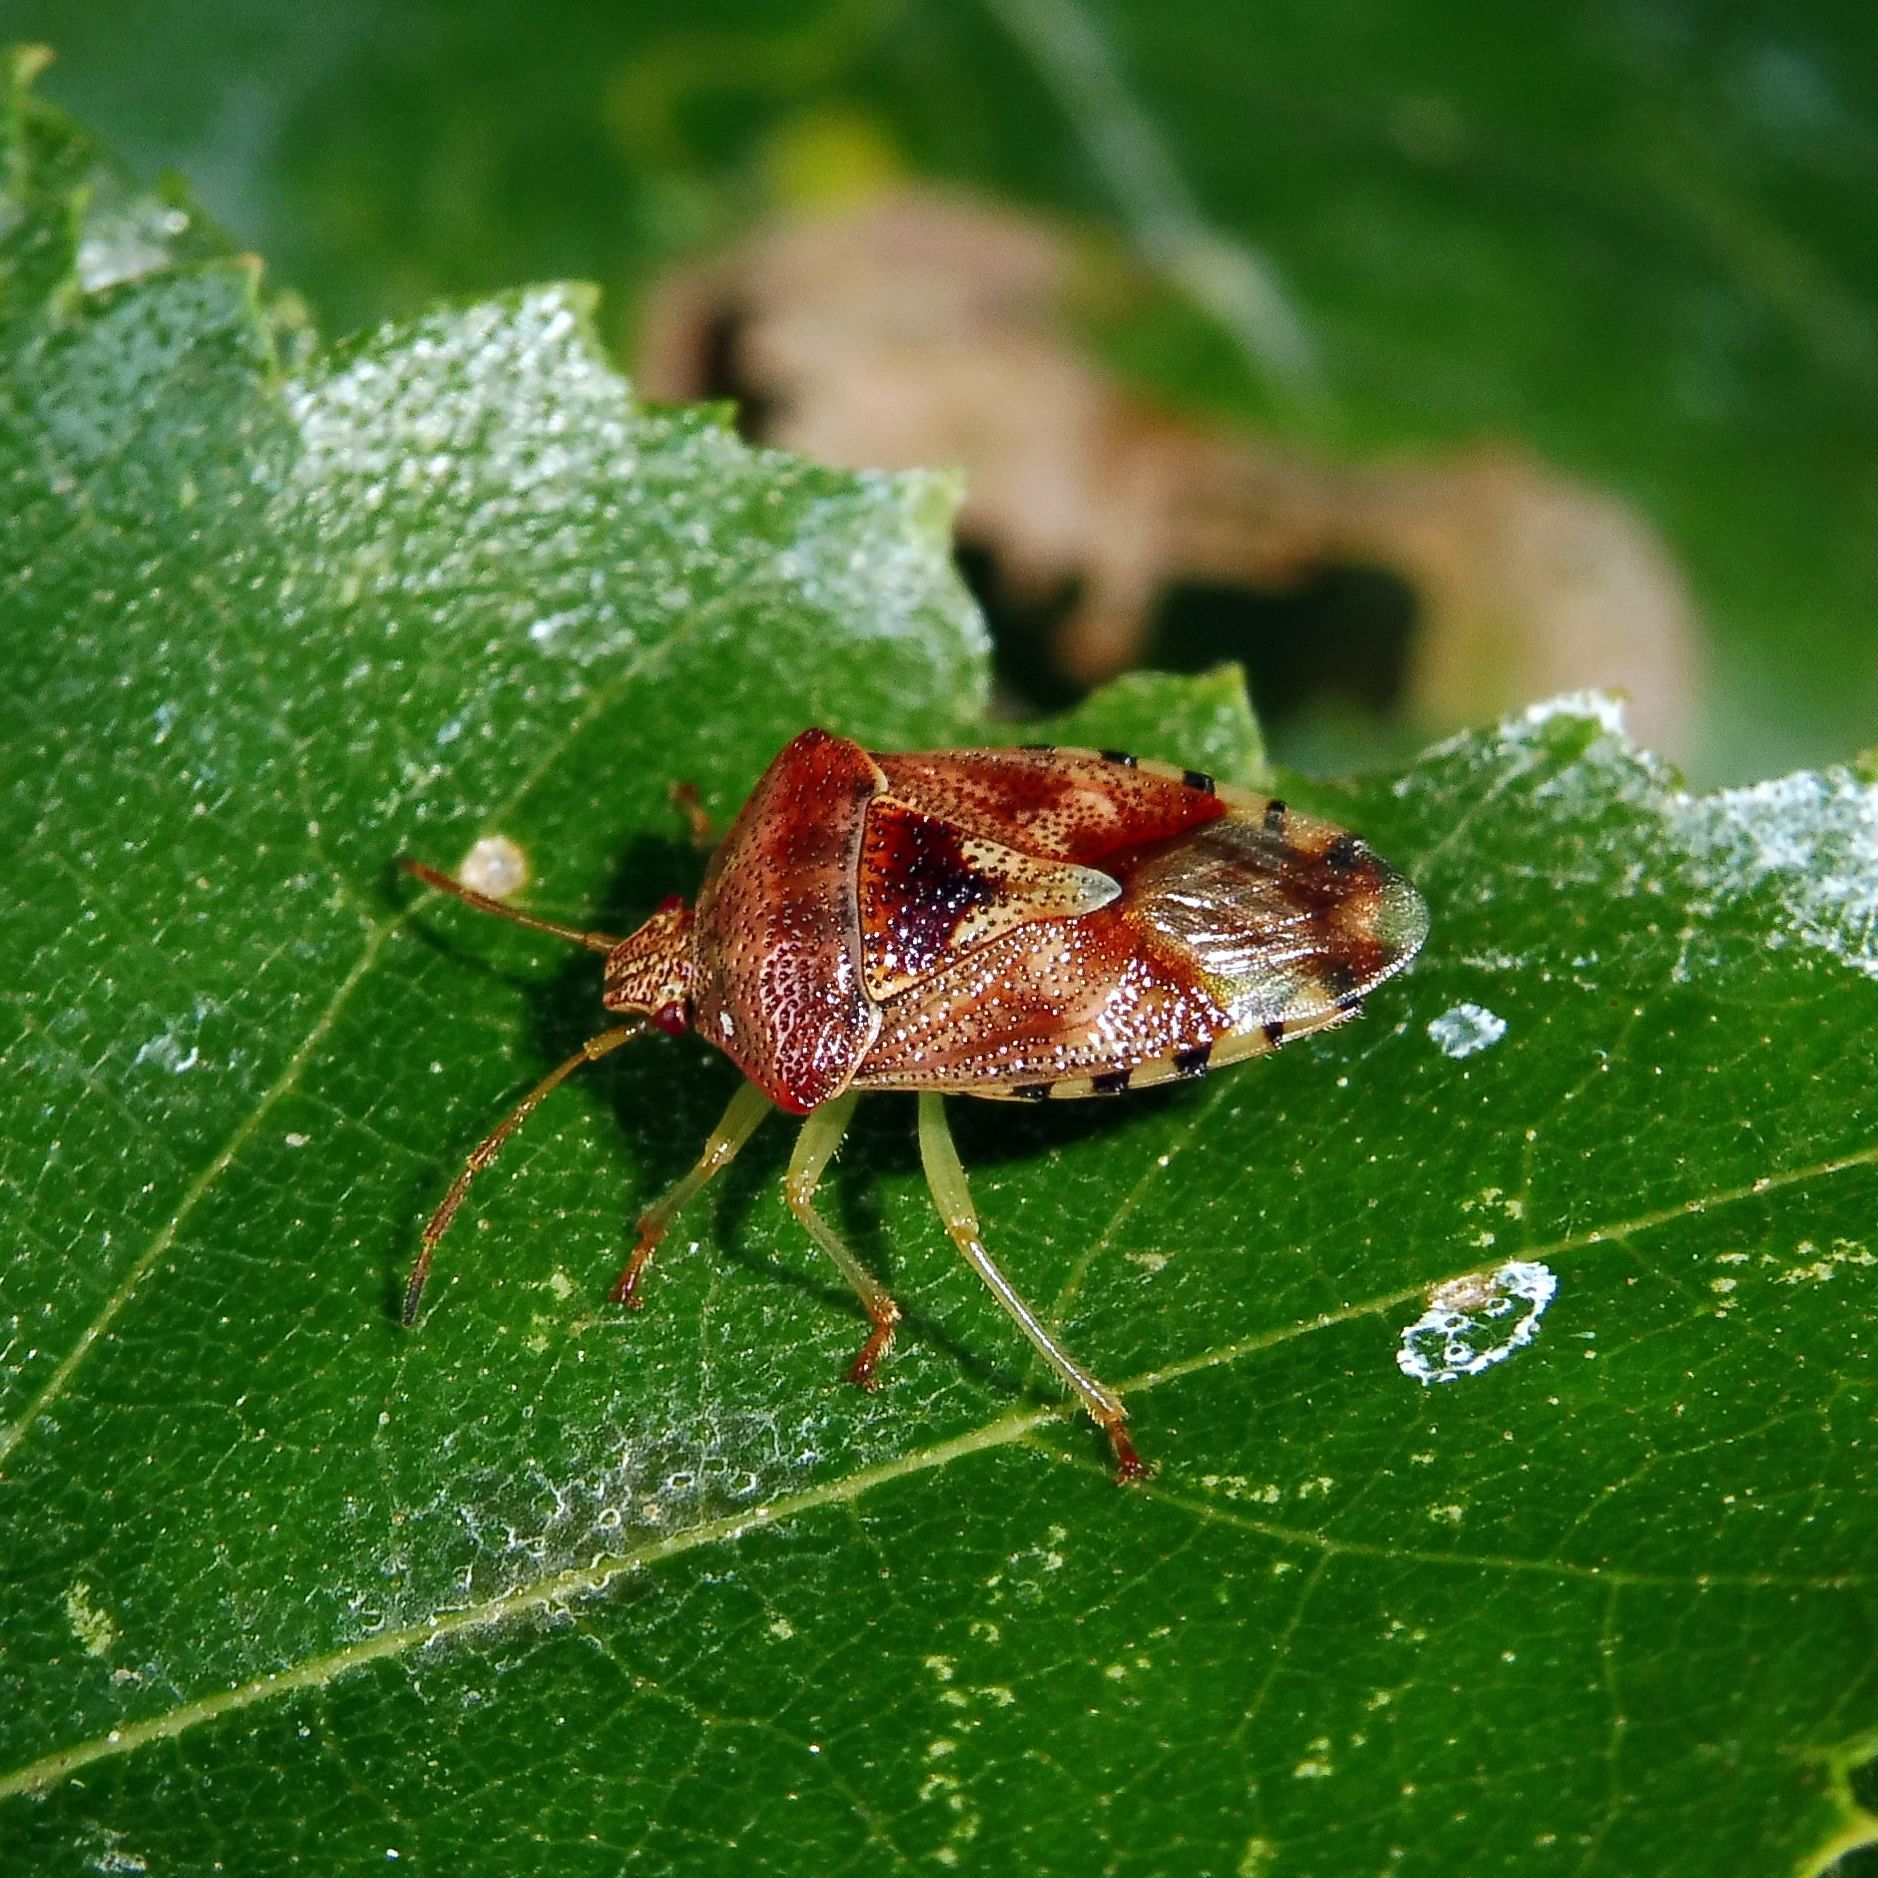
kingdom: Animalia
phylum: Arthropoda
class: Insecta
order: Hemiptera
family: Acanthosomatidae
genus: Elasmucha
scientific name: Elasmucha grisea
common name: Parent bug
